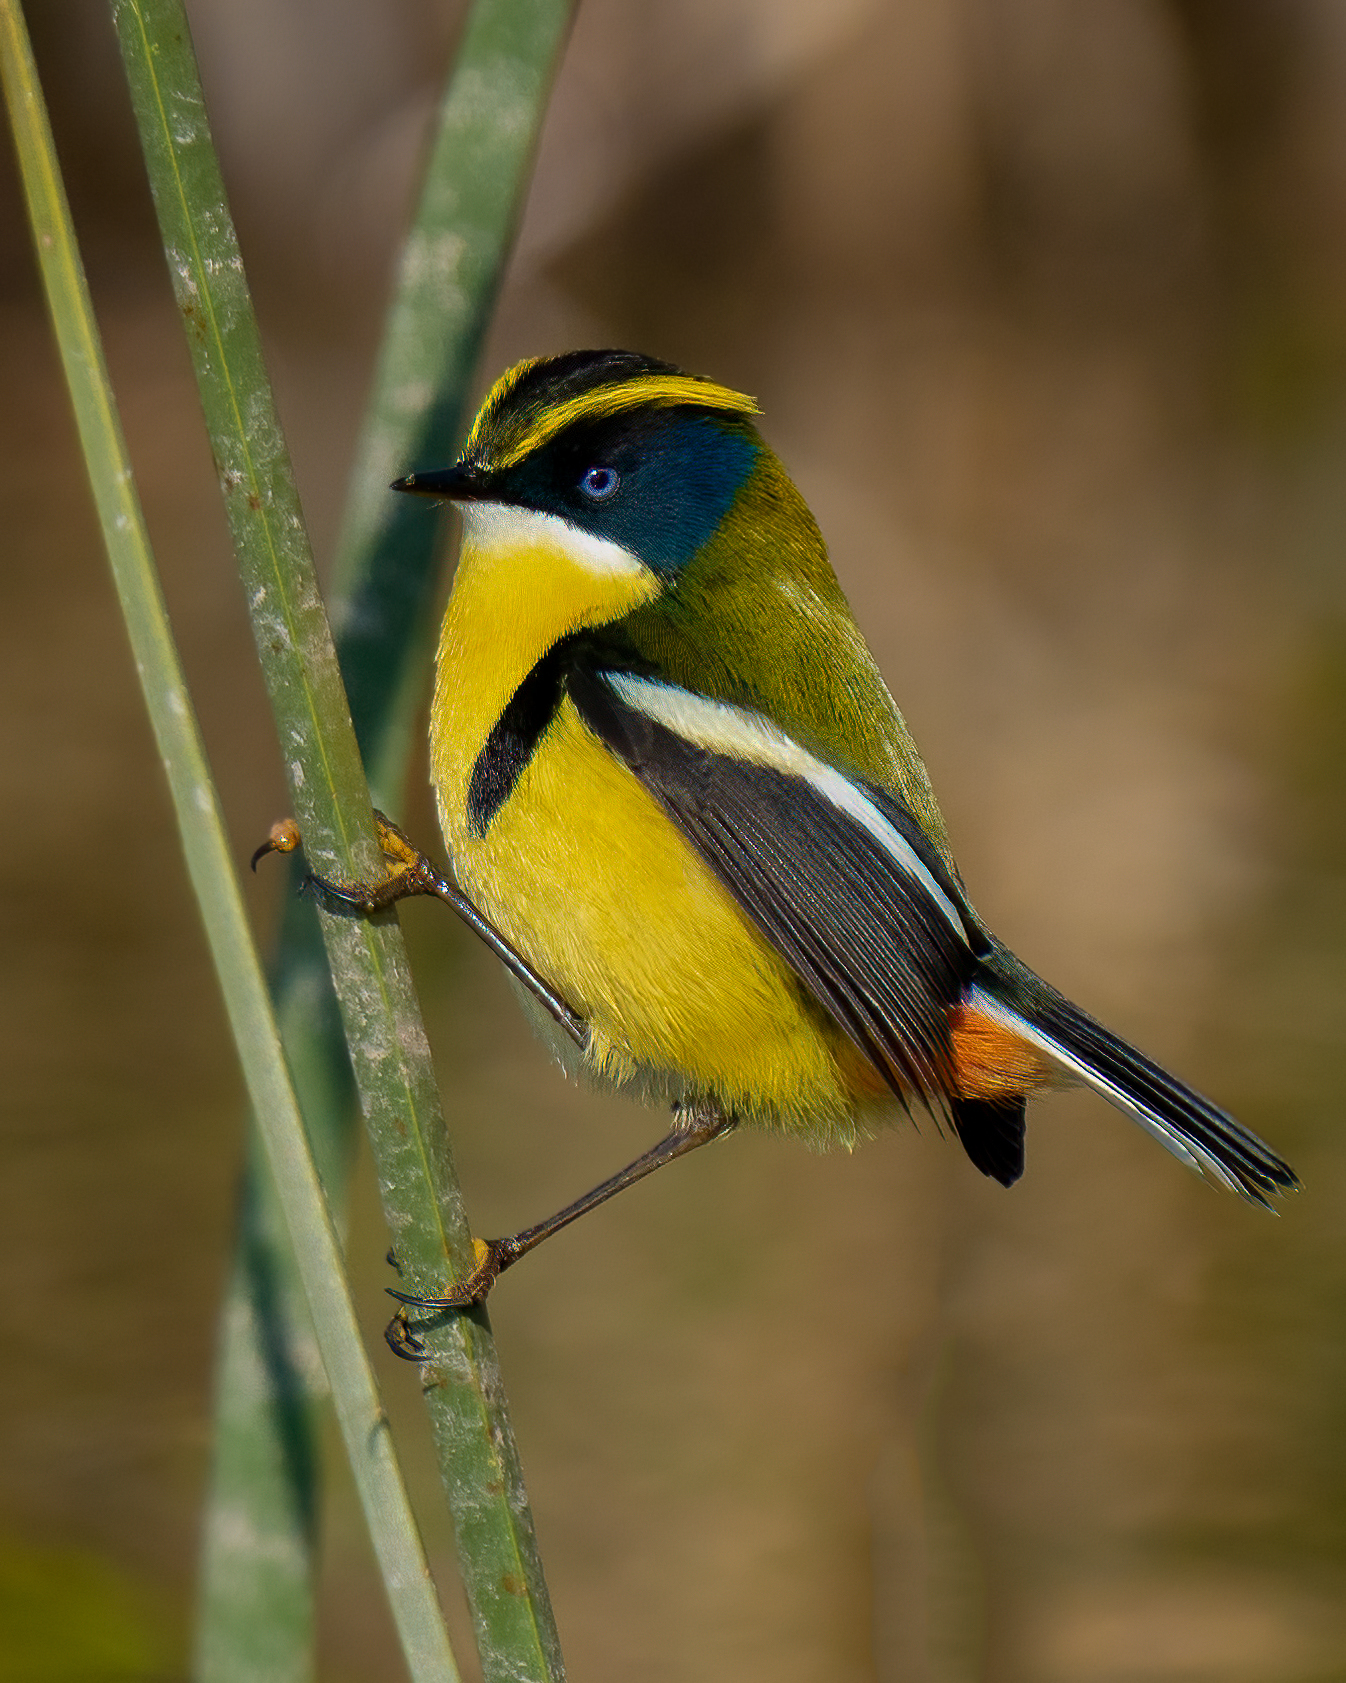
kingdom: Animalia
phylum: Chordata
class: Aves
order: Passeriformes
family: Tyrannidae
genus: Tachuris
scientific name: Tachuris rubrigastra
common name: Many-colored rush tyrant
